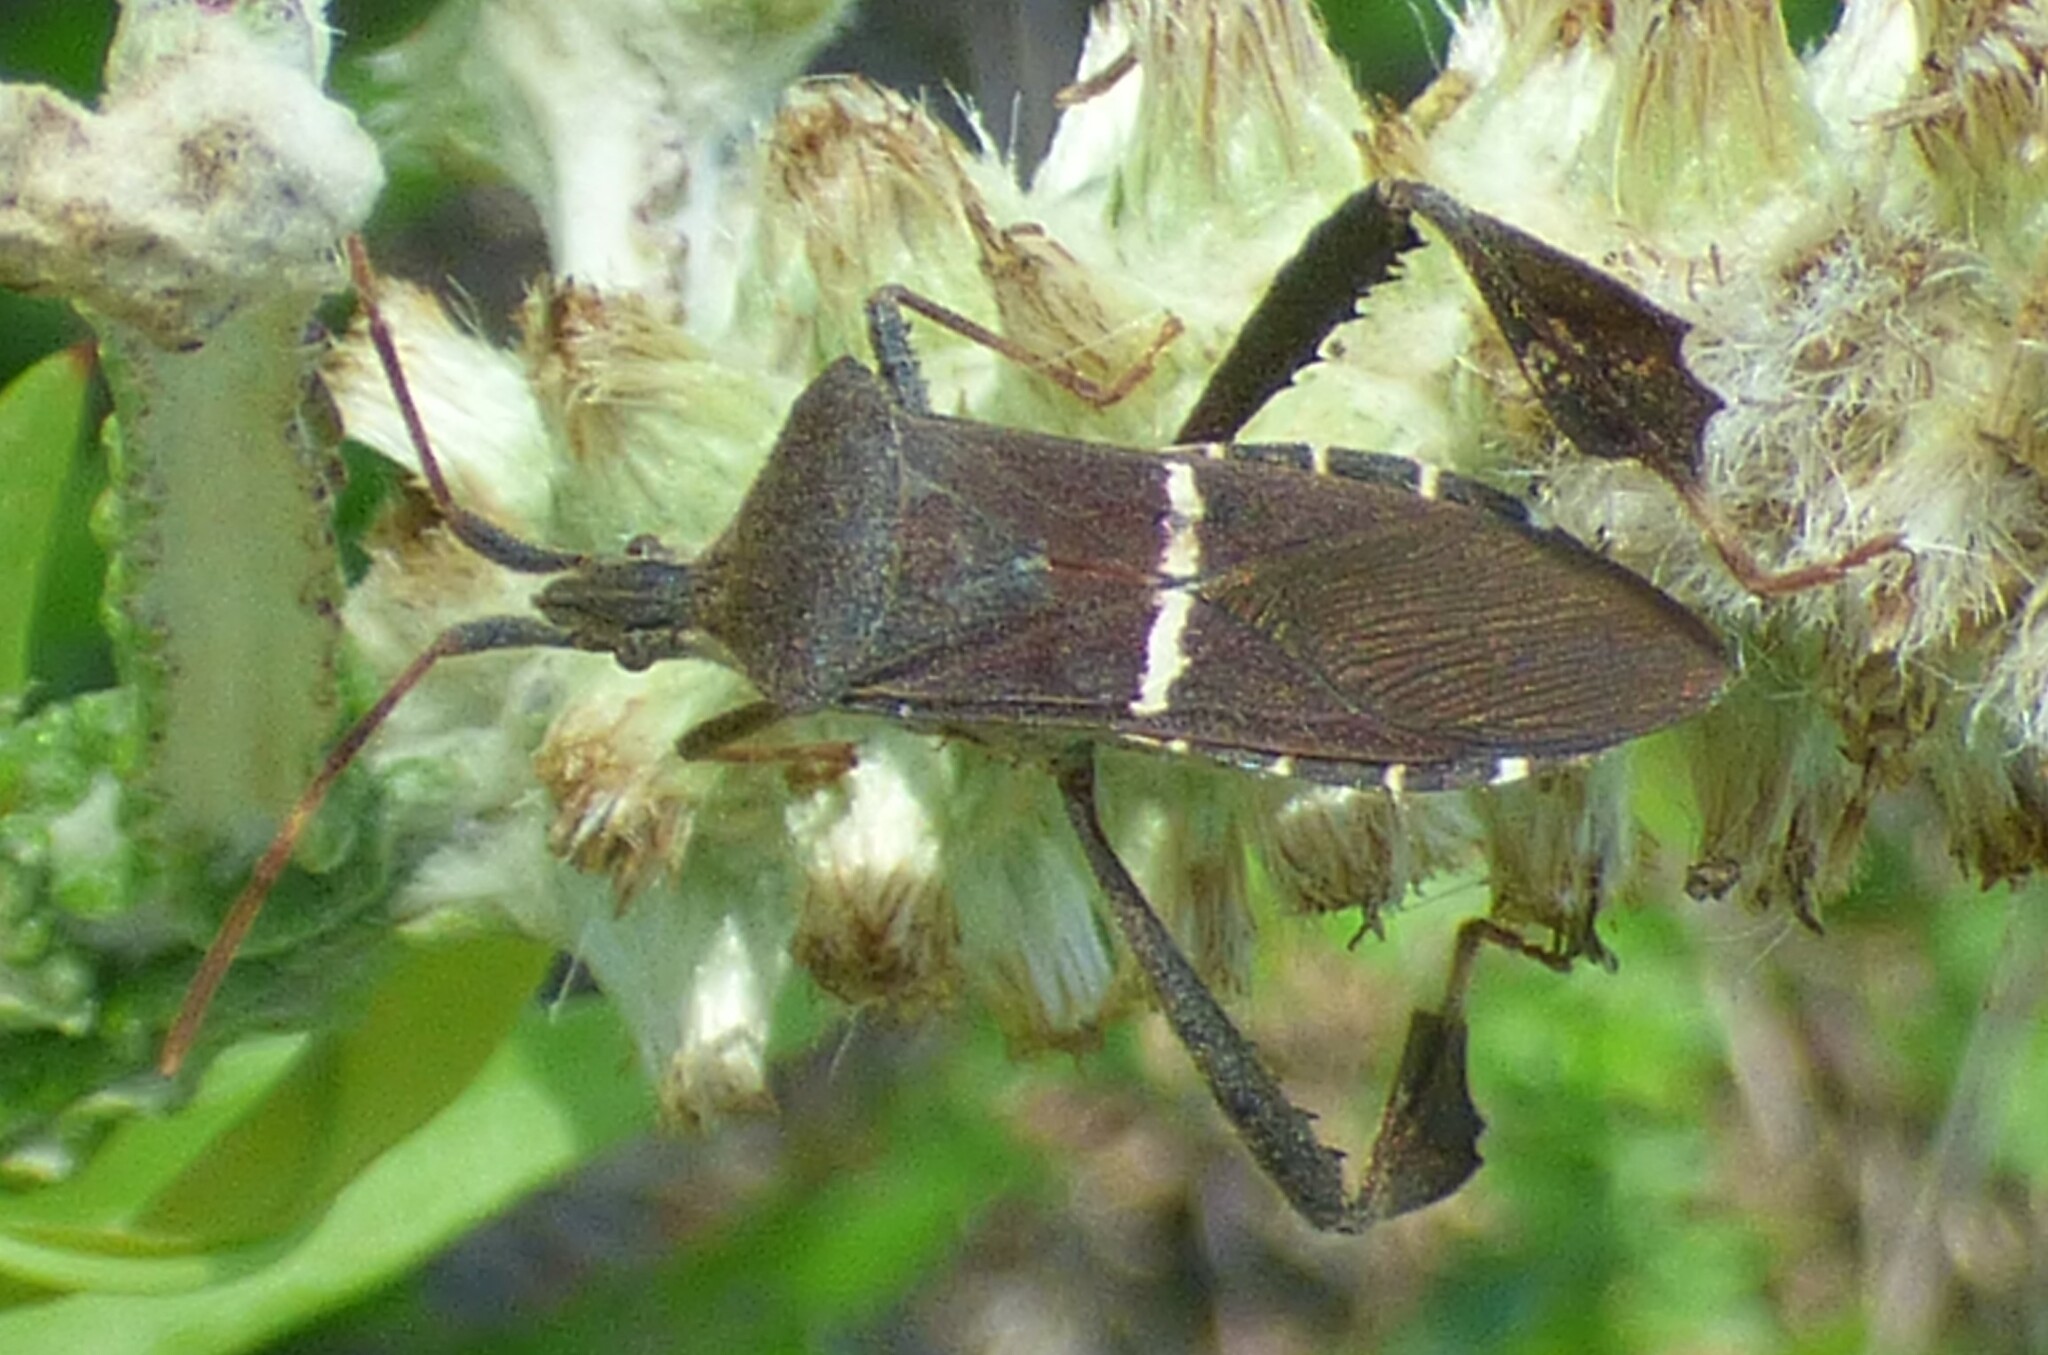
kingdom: Animalia
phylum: Arthropoda
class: Insecta
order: Hemiptera
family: Coreidae
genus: Leptoglossus
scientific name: Leptoglossus phyllopus
